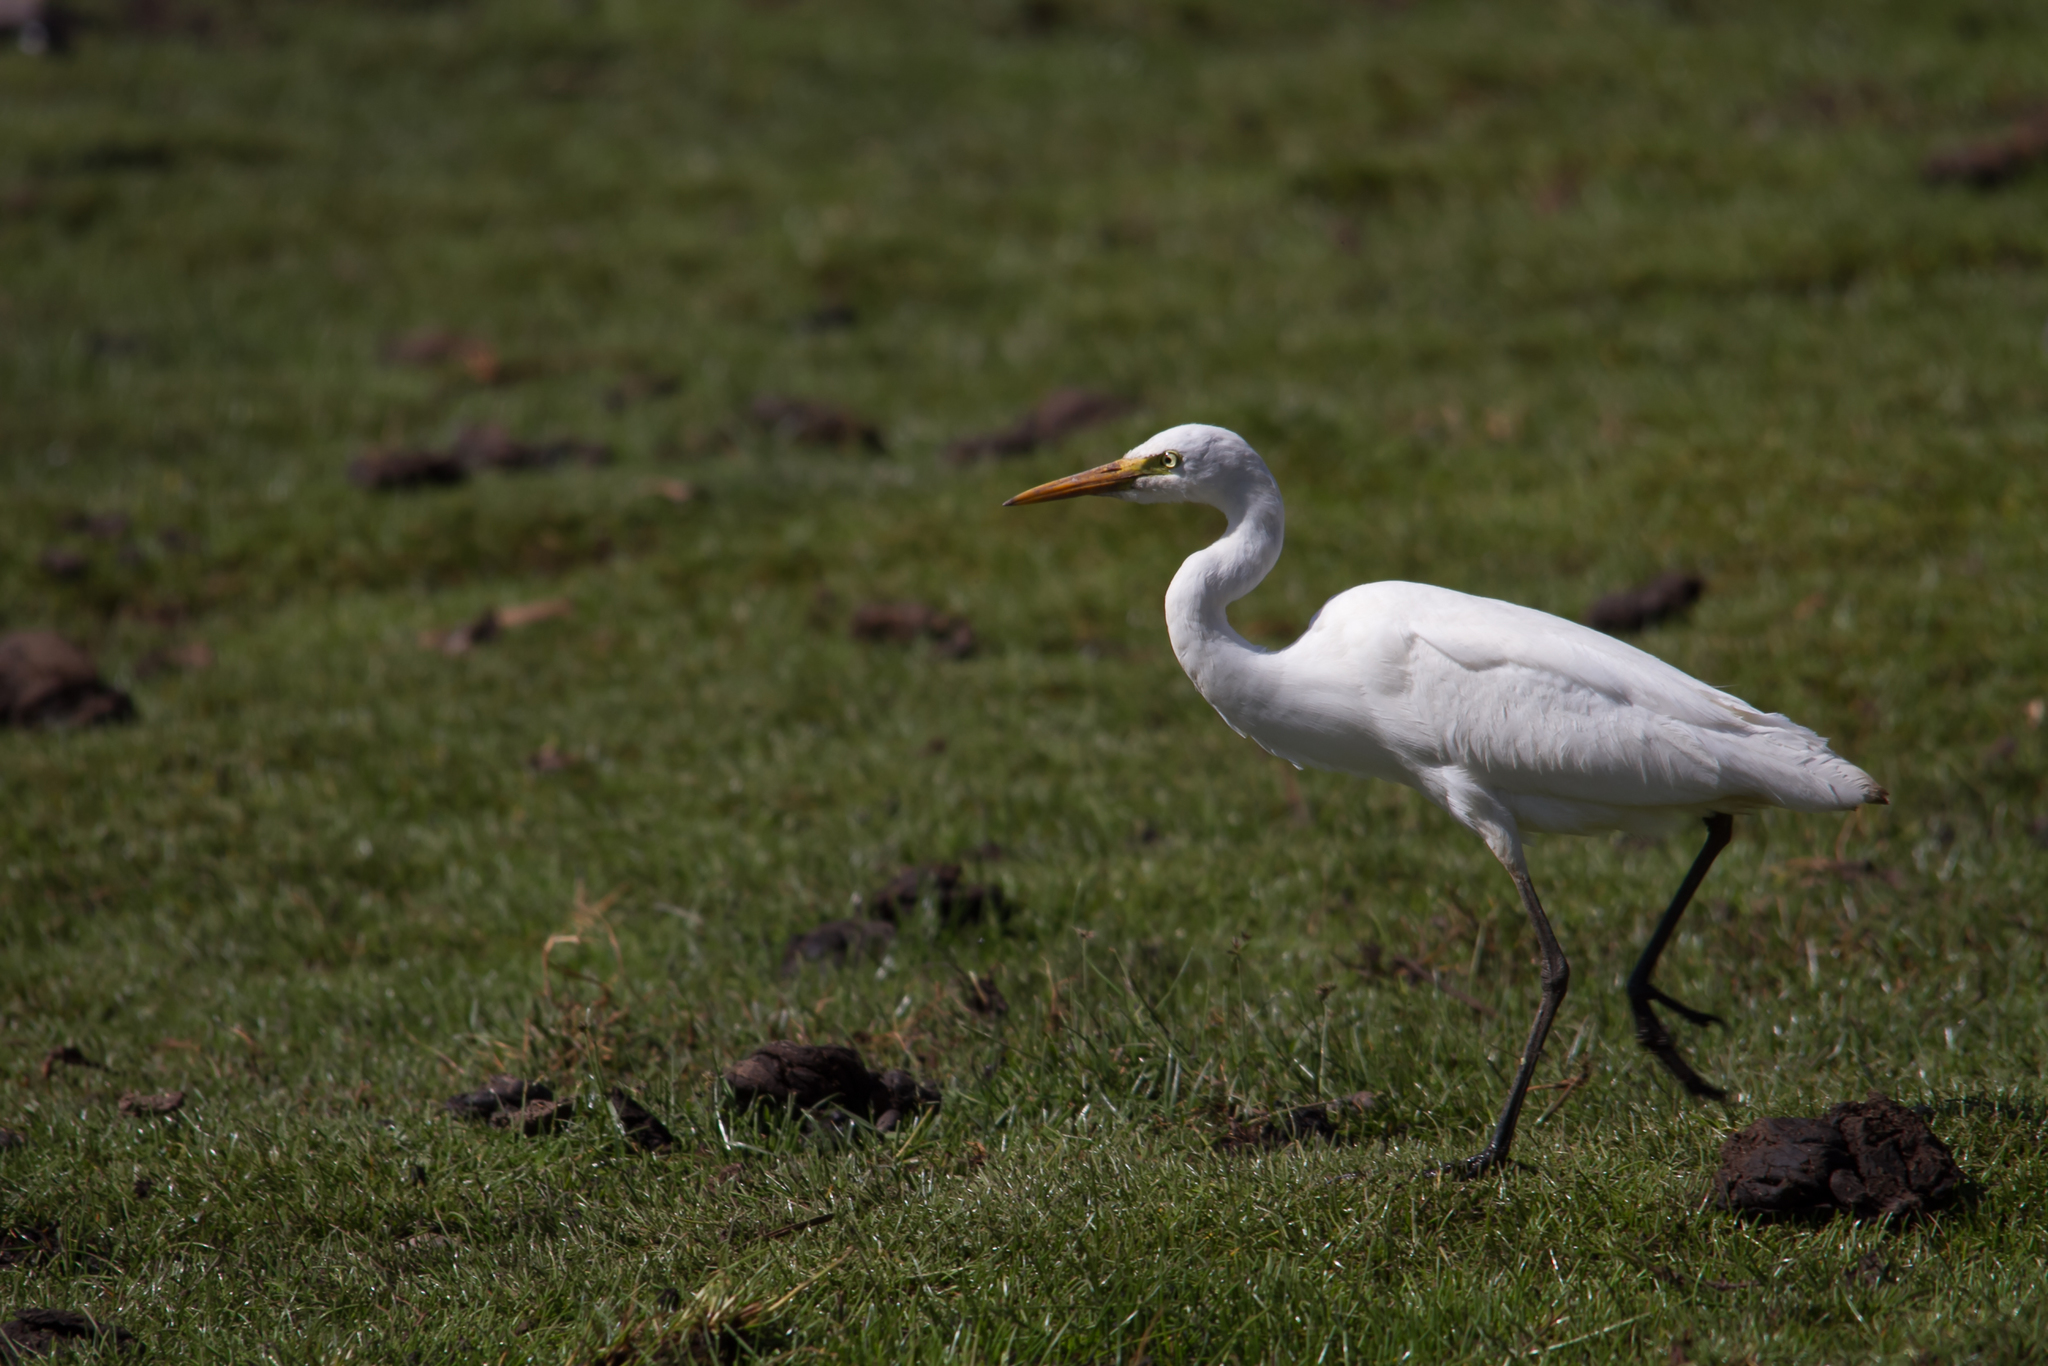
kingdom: Animalia
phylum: Chordata
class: Aves
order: Pelecaniformes
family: Ardeidae
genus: Egretta
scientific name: Egretta intermedia
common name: Intermediate egret
